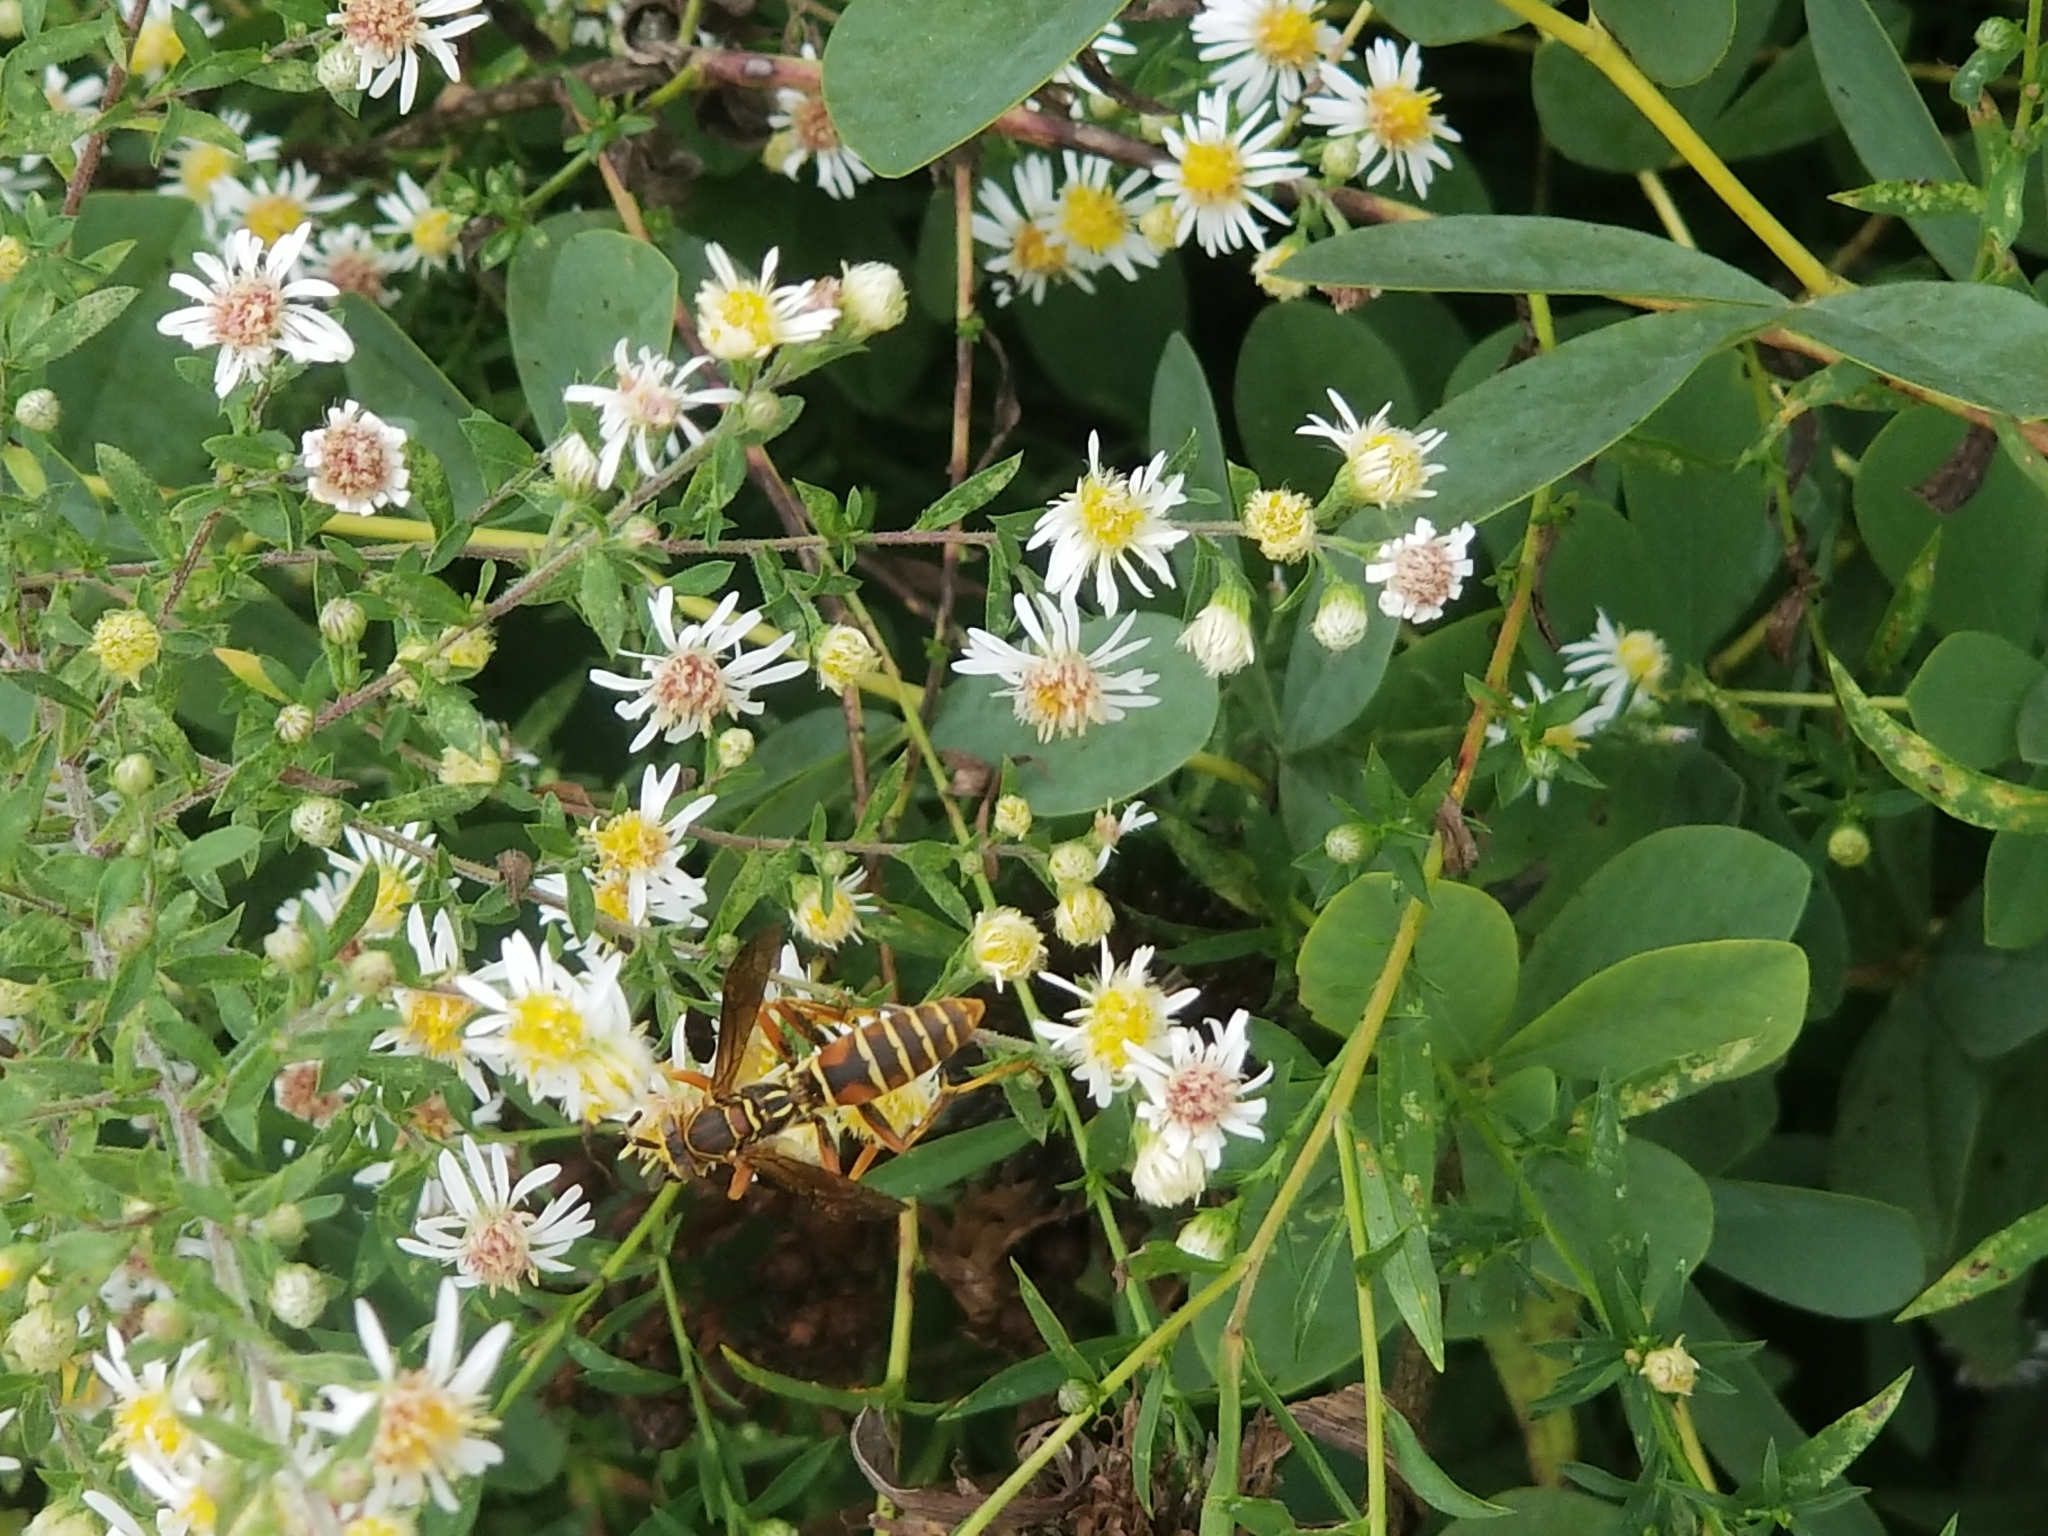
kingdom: Animalia
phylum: Arthropoda
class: Insecta
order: Hymenoptera
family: Eumenidae
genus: Polistes
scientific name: Polistes fuscatus
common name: Dark paper wasp
